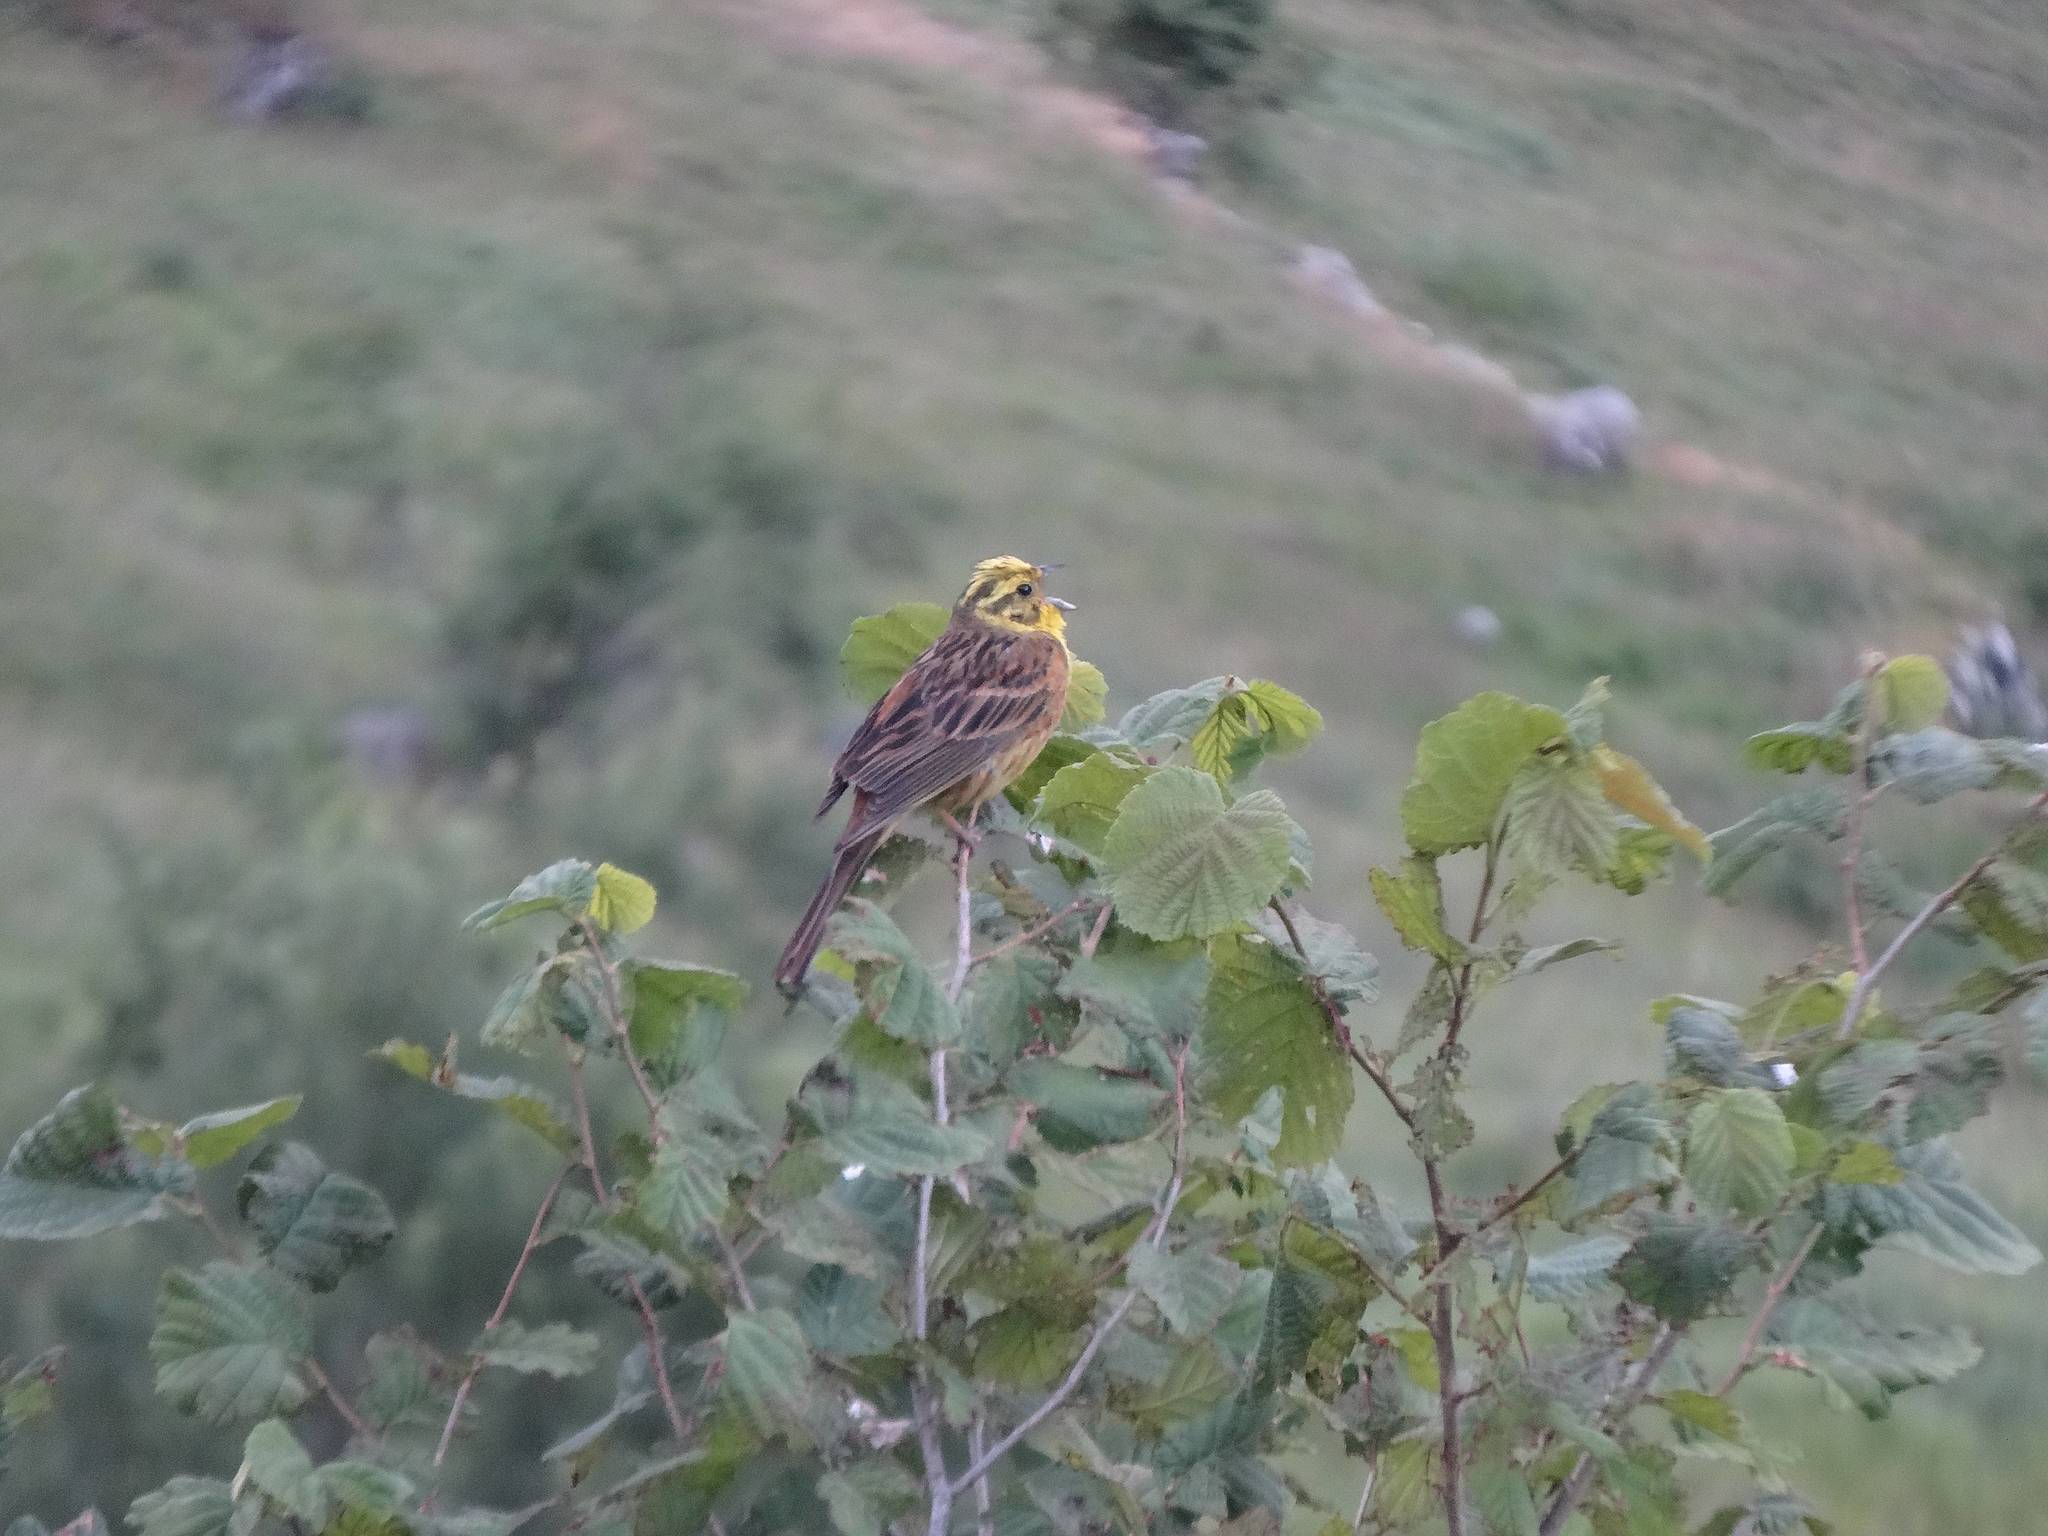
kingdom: Animalia
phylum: Chordata
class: Aves
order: Passeriformes
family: Emberizidae
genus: Emberiza
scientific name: Emberiza citrinella
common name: Yellowhammer
